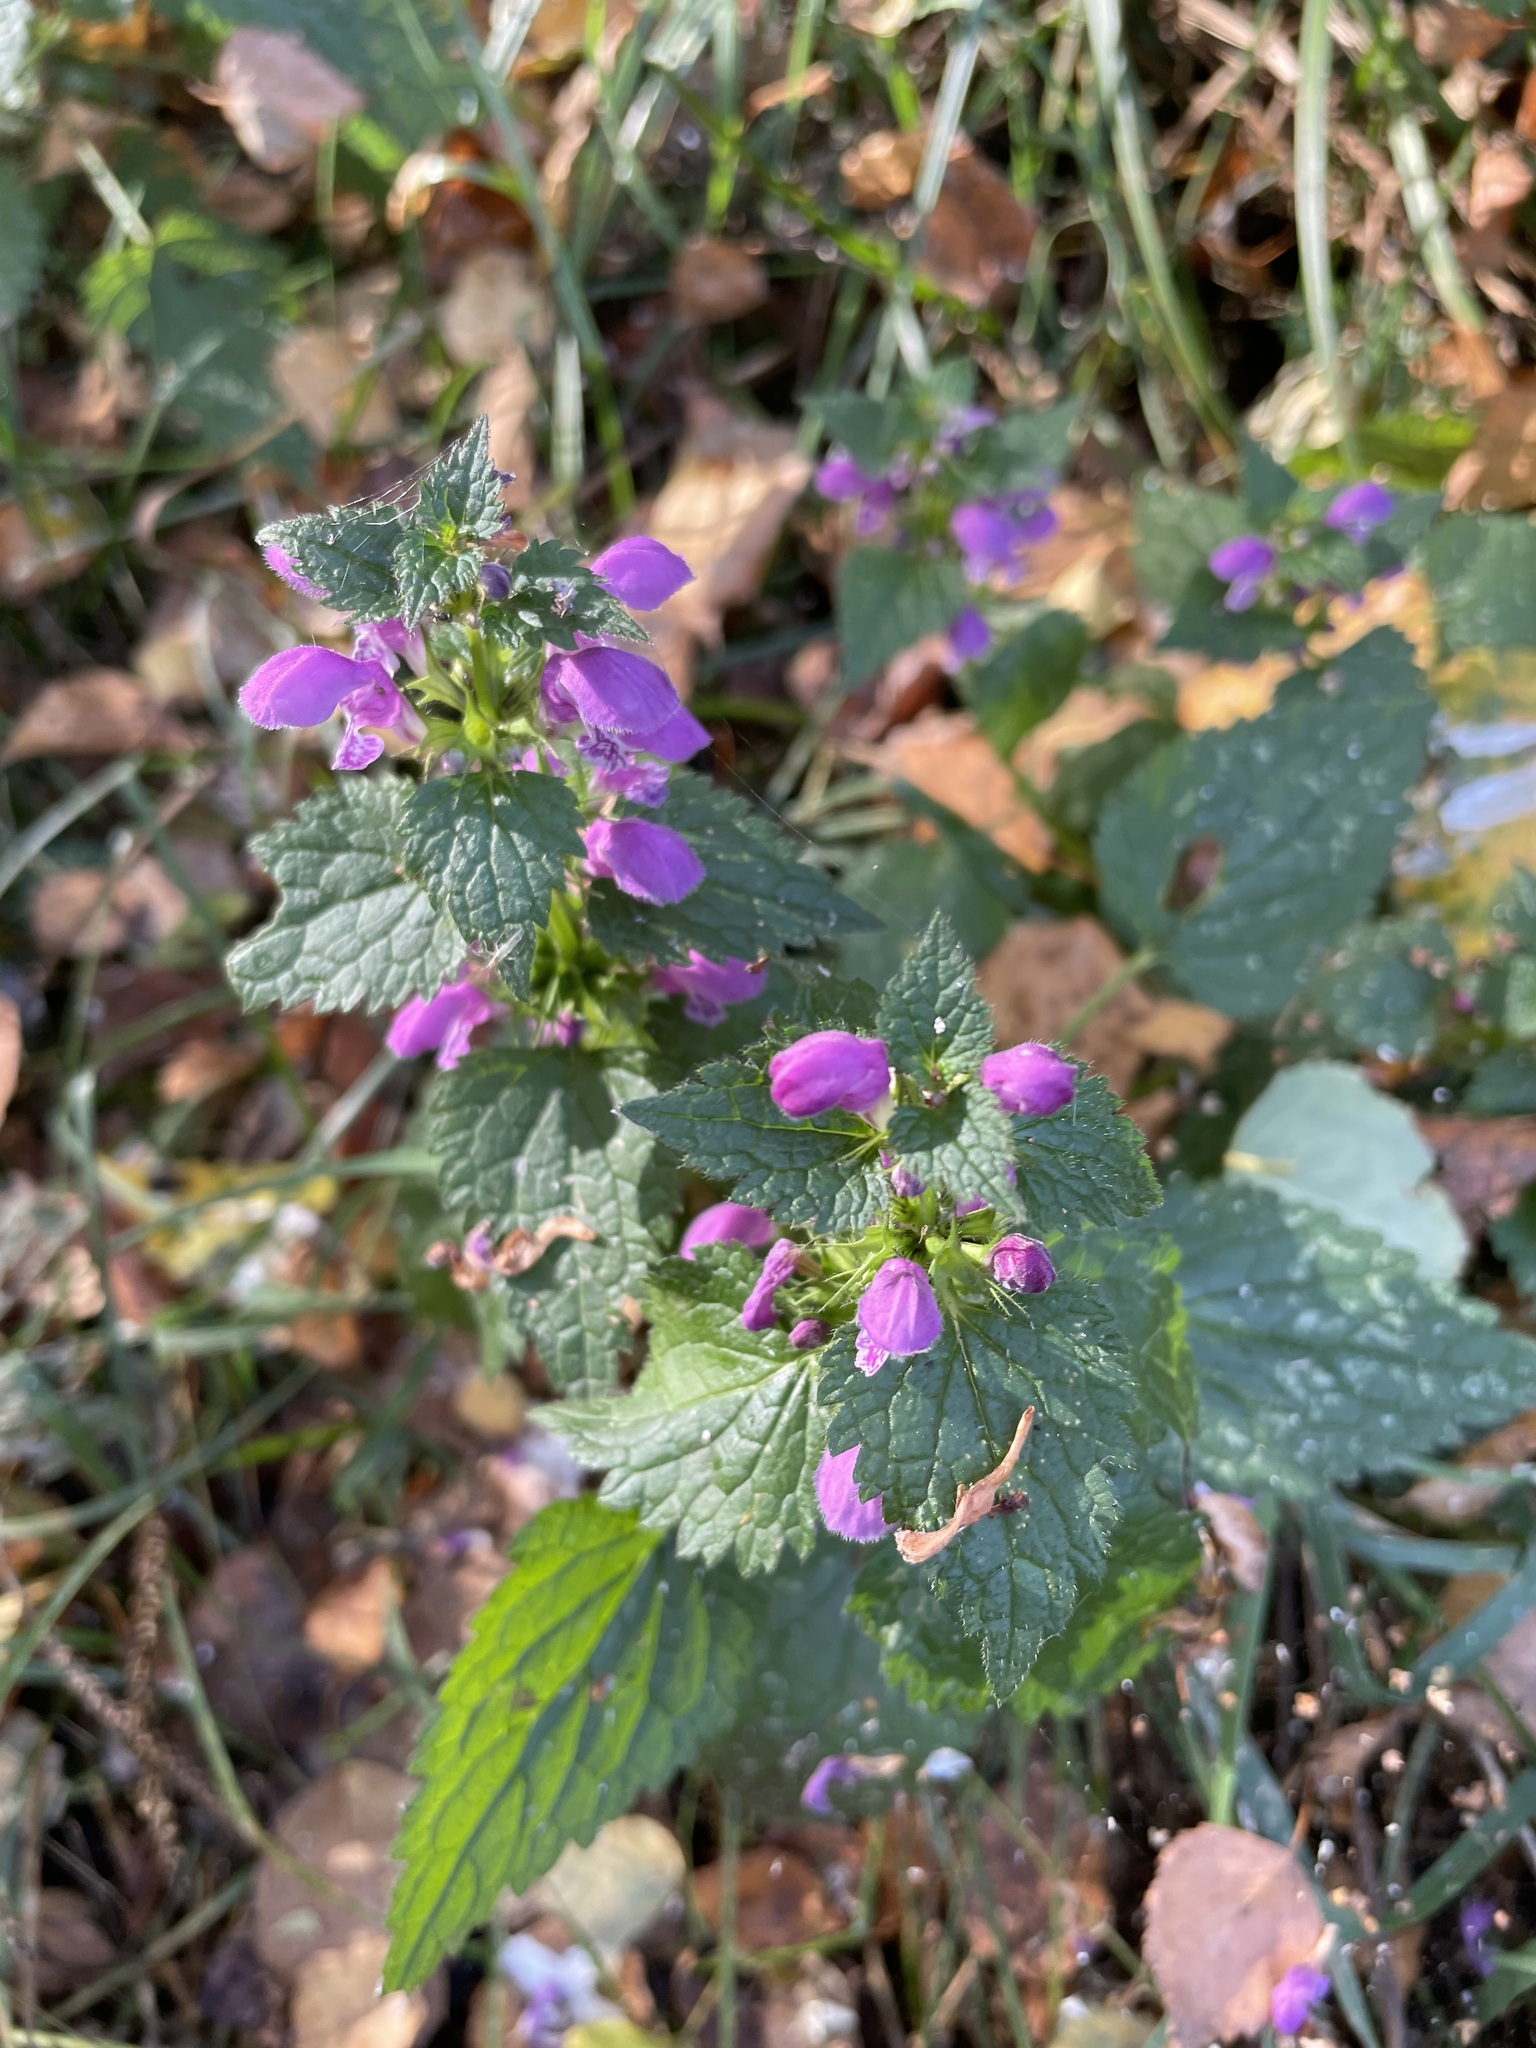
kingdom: Plantae
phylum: Tracheophyta
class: Magnoliopsida
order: Lamiales
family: Lamiaceae
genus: Lamium
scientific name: Lamium maculatum
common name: Spotted dead-nettle
